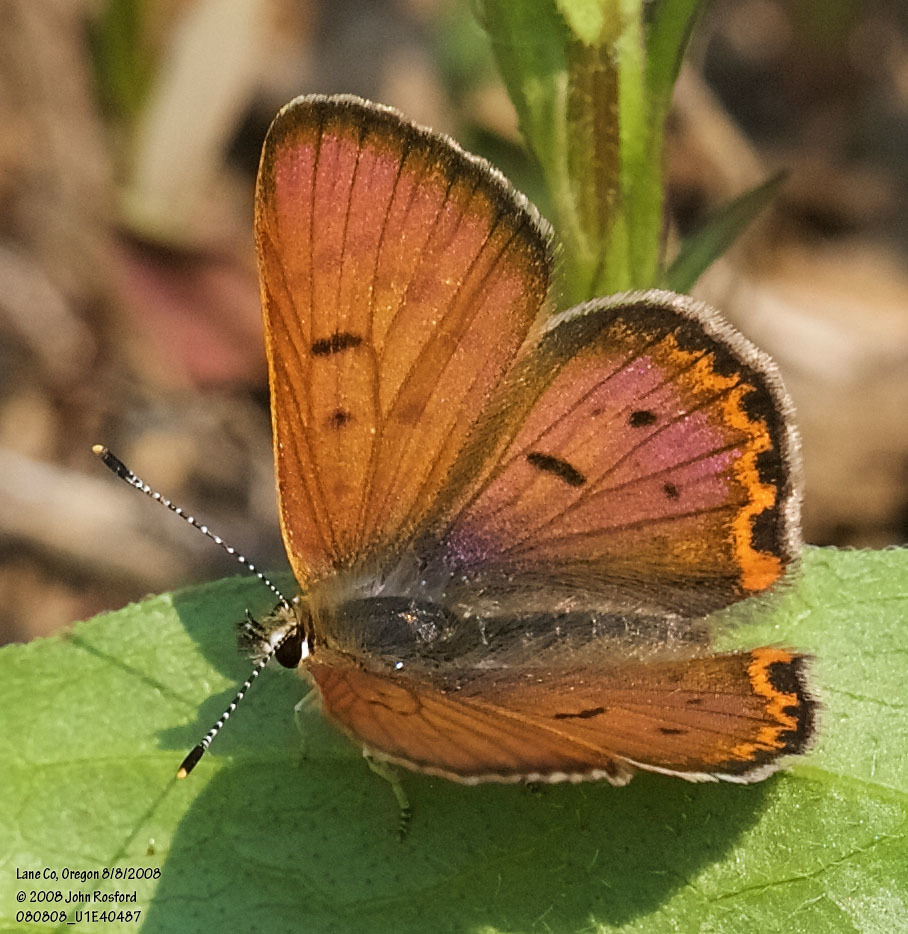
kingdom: Animalia
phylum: Arthropoda
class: Insecta
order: Lepidoptera
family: Lycaenidae
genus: Tharsalea
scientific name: Tharsalea nivalis
